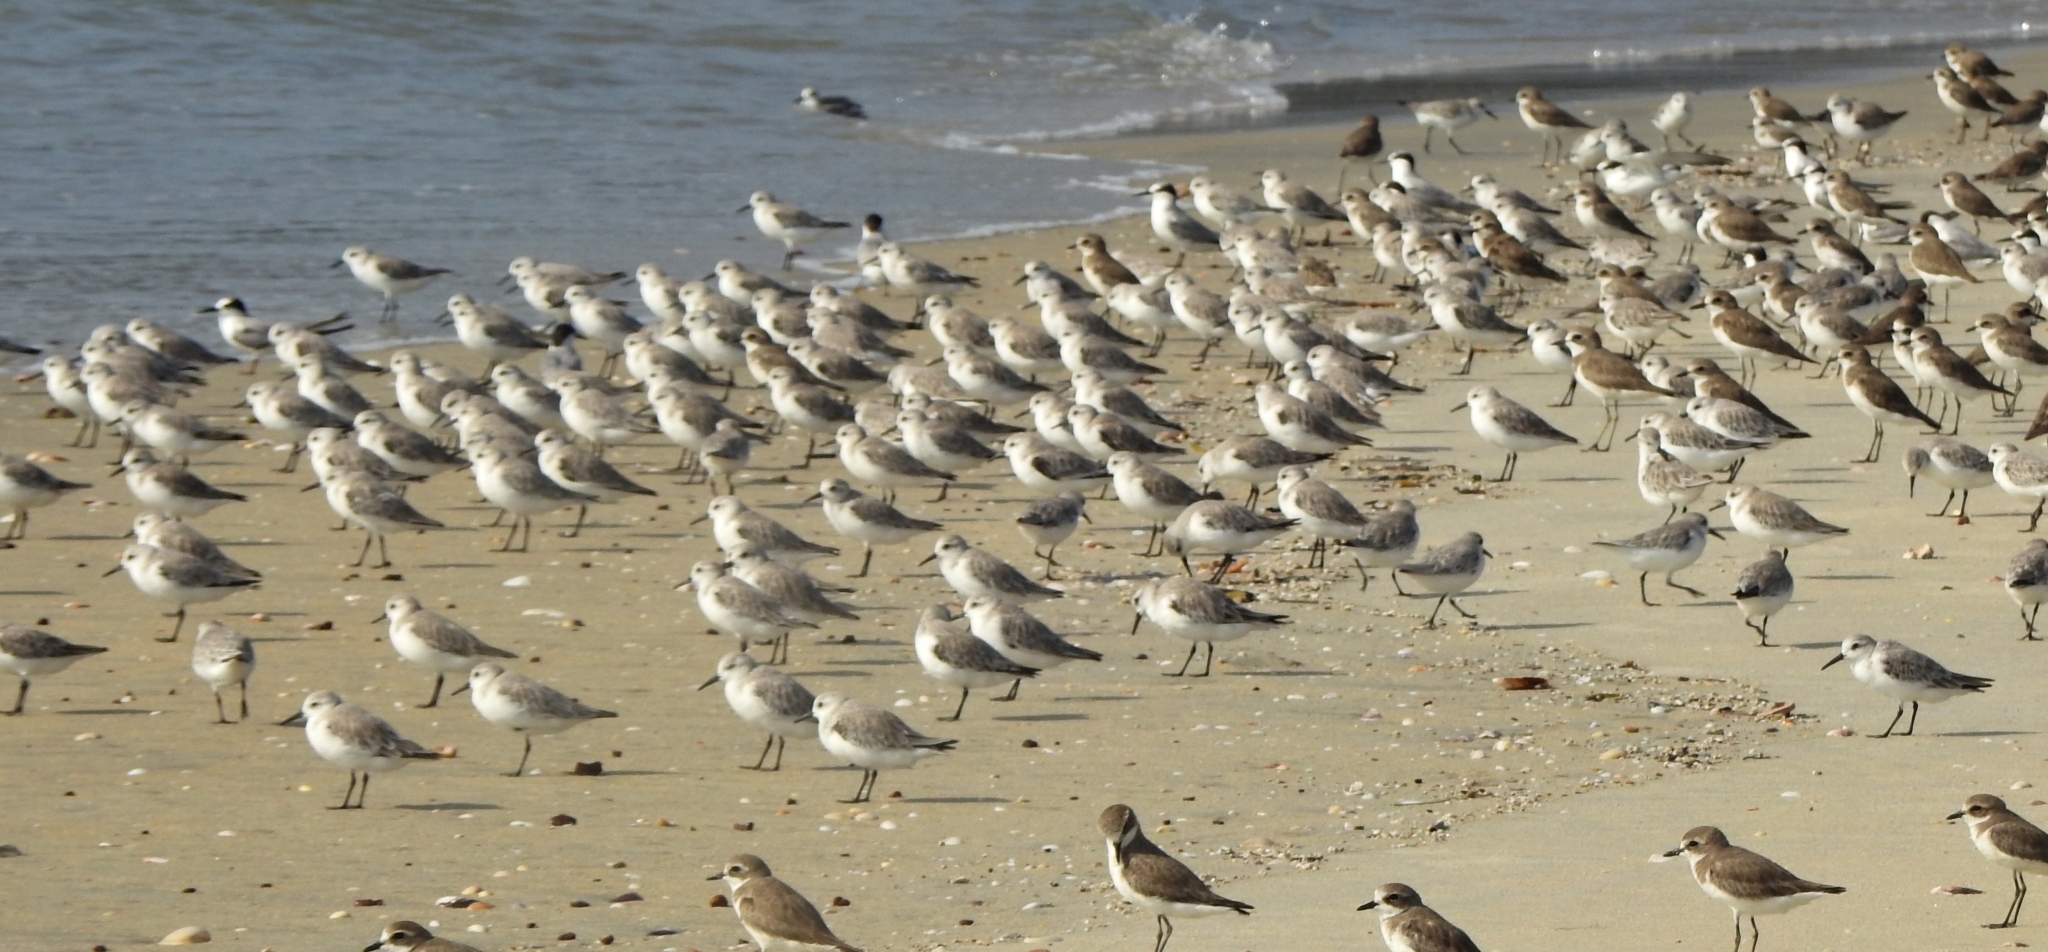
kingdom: Animalia
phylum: Chordata
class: Aves
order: Charadriiformes
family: Scolopacidae
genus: Calidris
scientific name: Calidris alba
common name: Sanderling
